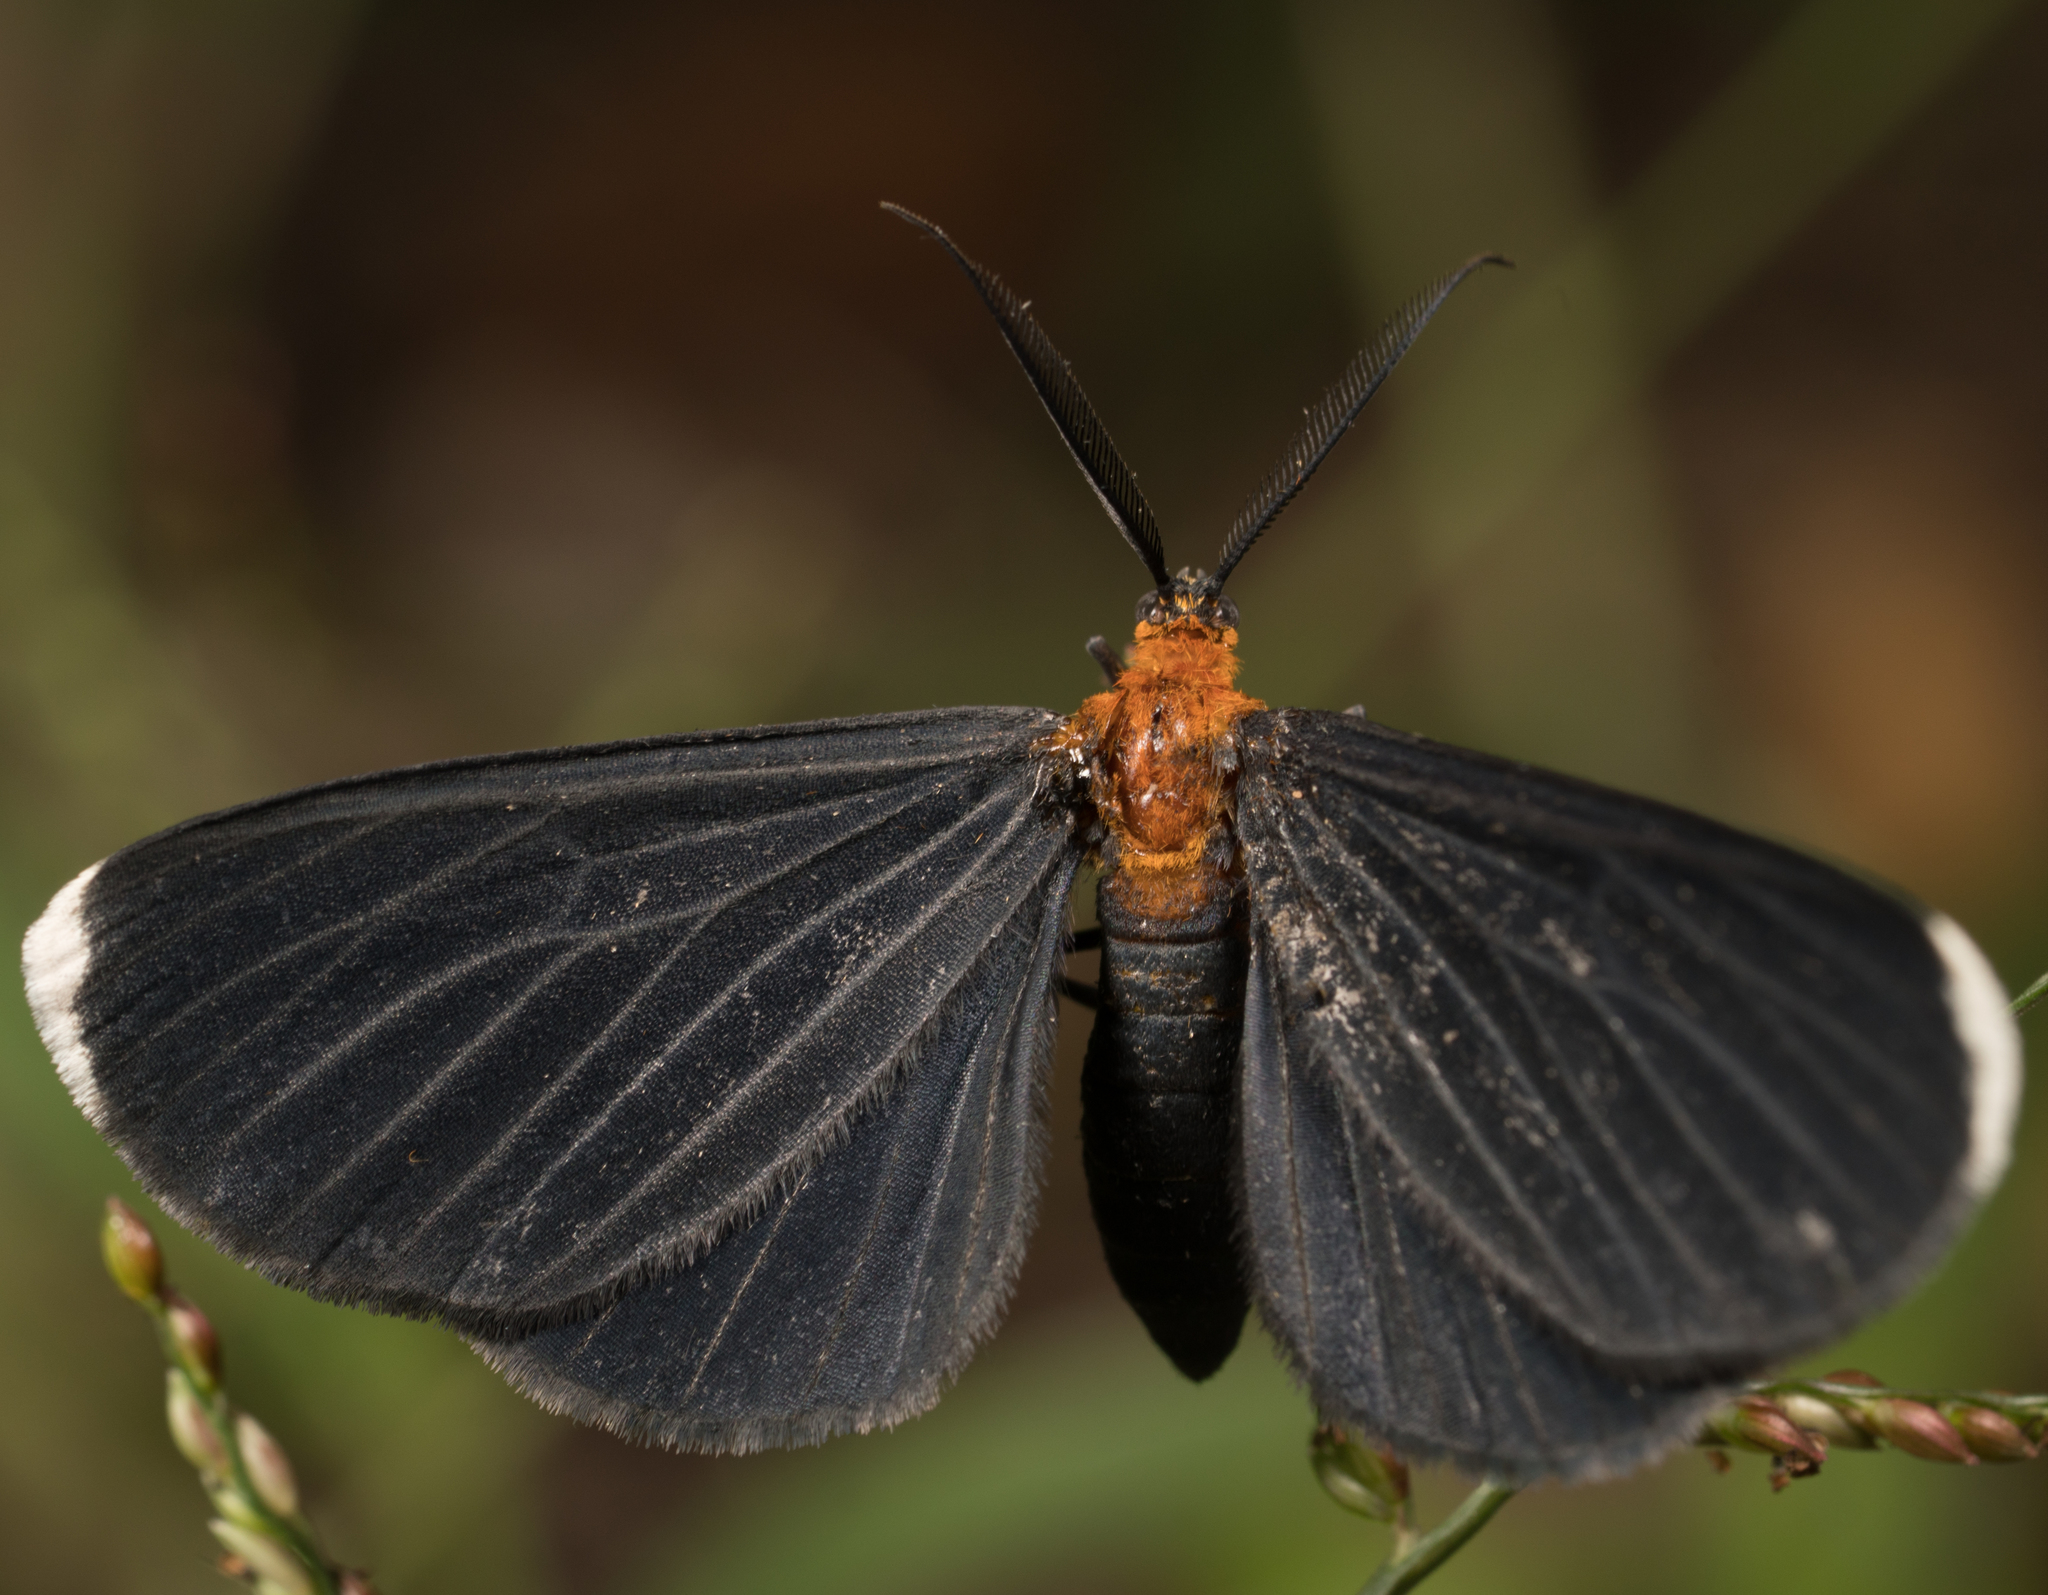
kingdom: Animalia
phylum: Arthropoda
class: Insecta
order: Lepidoptera
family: Geometridae
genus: Melanchroia
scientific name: Melanchroia chephise
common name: White-tipped black
